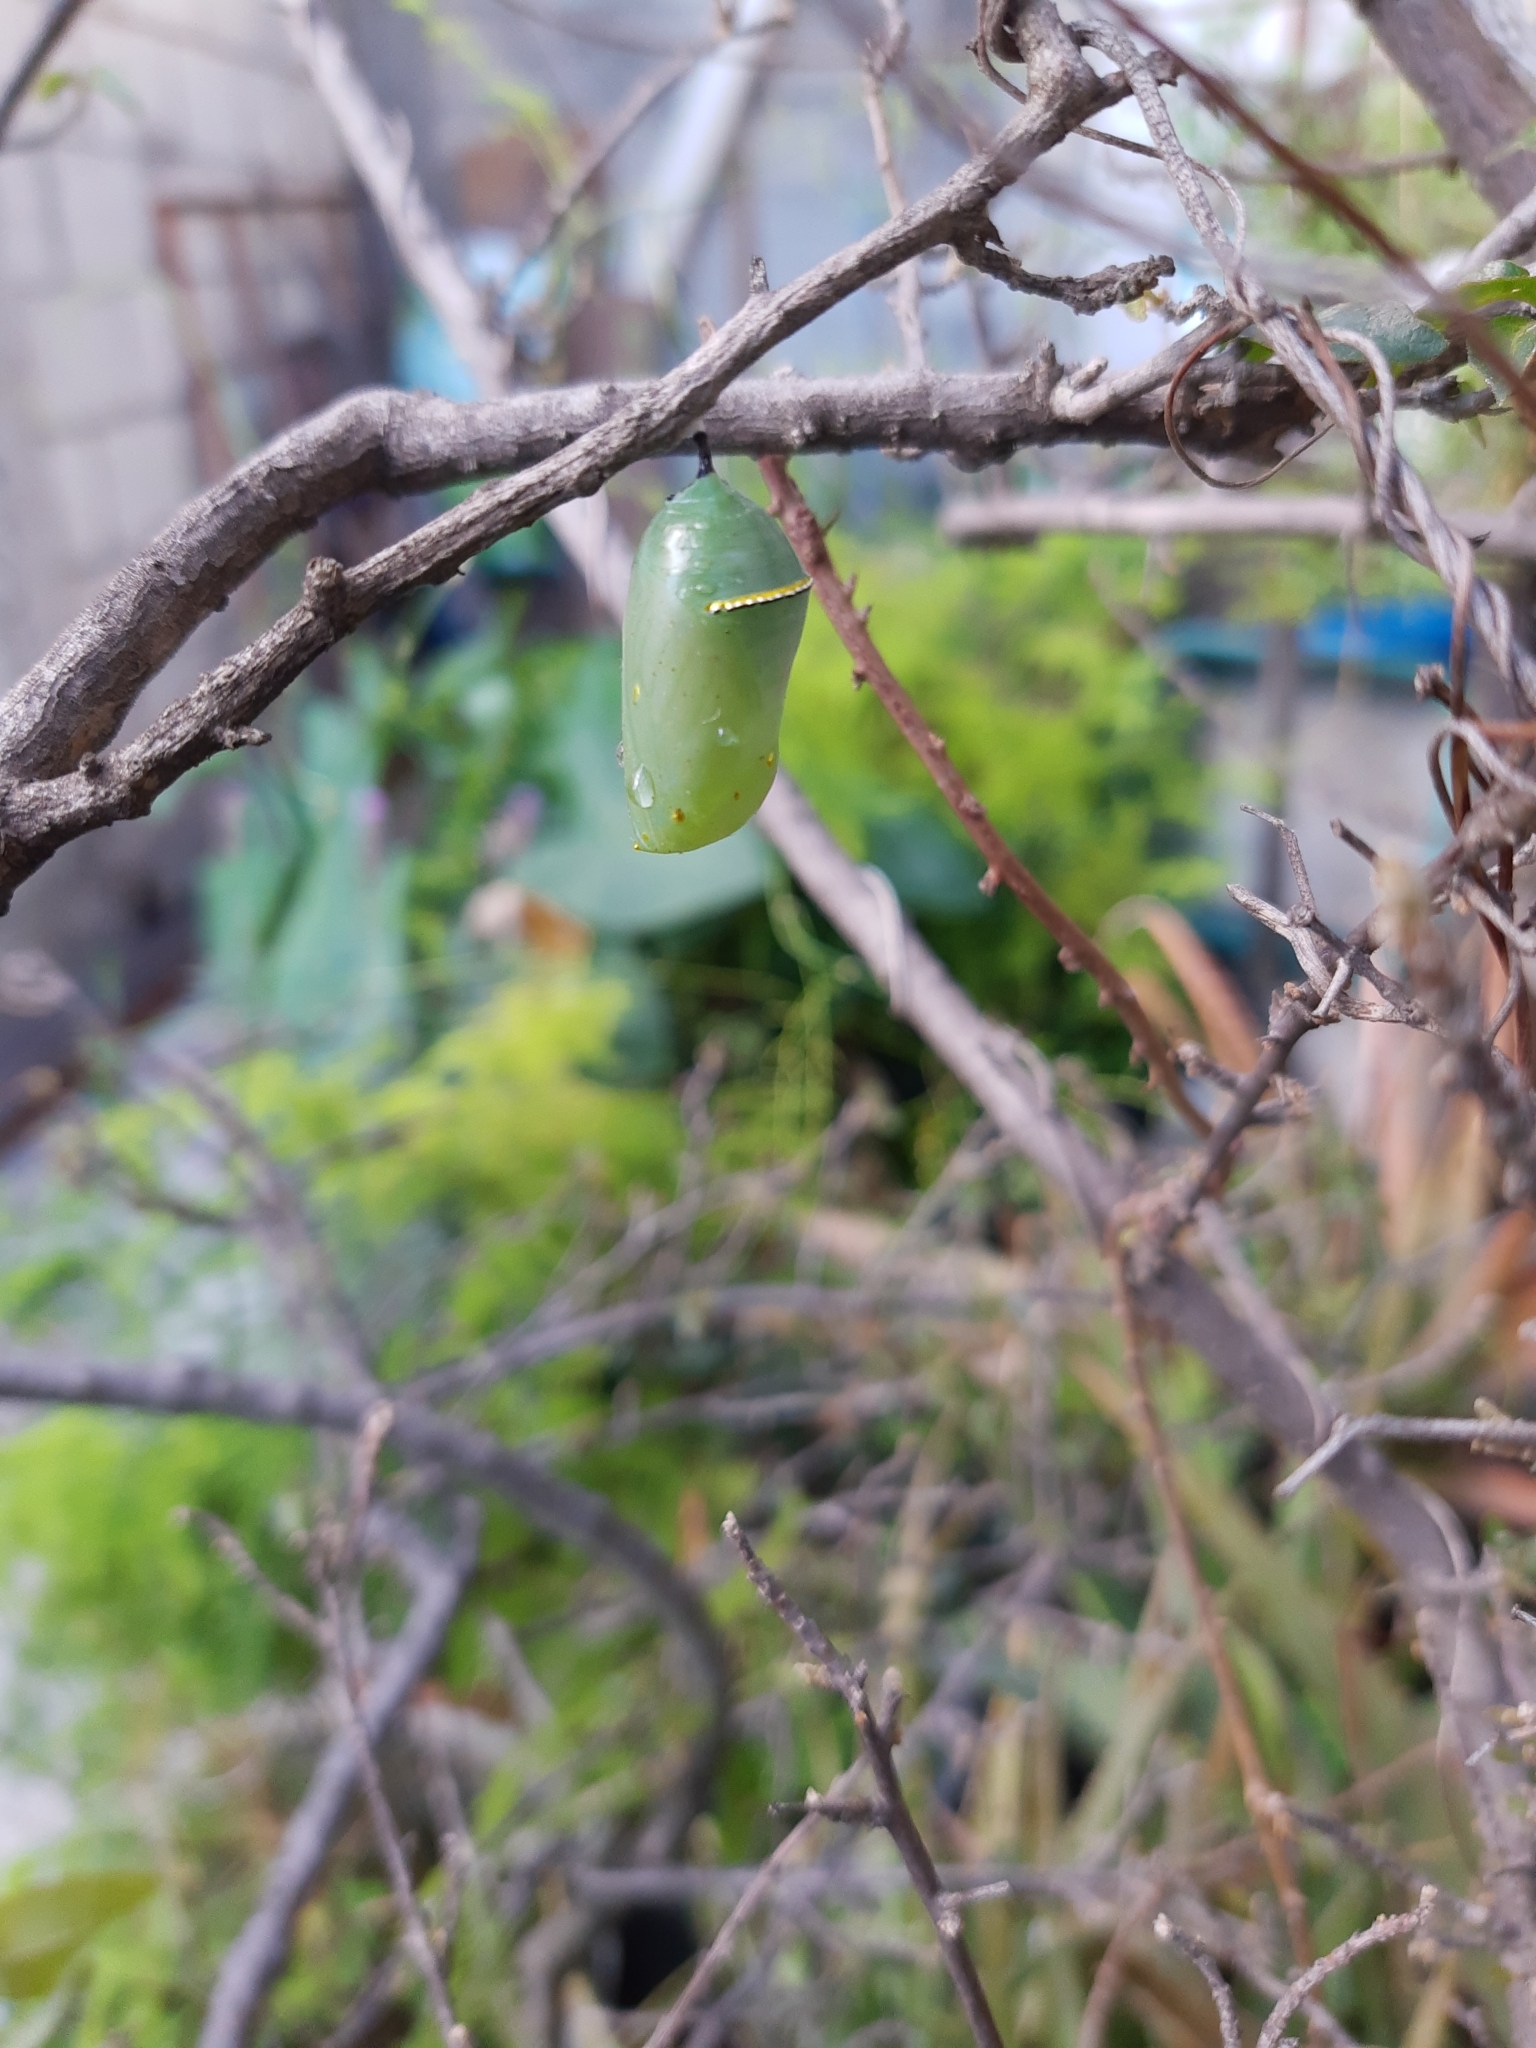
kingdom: Animalia
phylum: Arthropoda
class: Insecta
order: Lepidoptera
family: Nymphalidae
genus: Danaus
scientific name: Danaus plexippus
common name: Monarch
